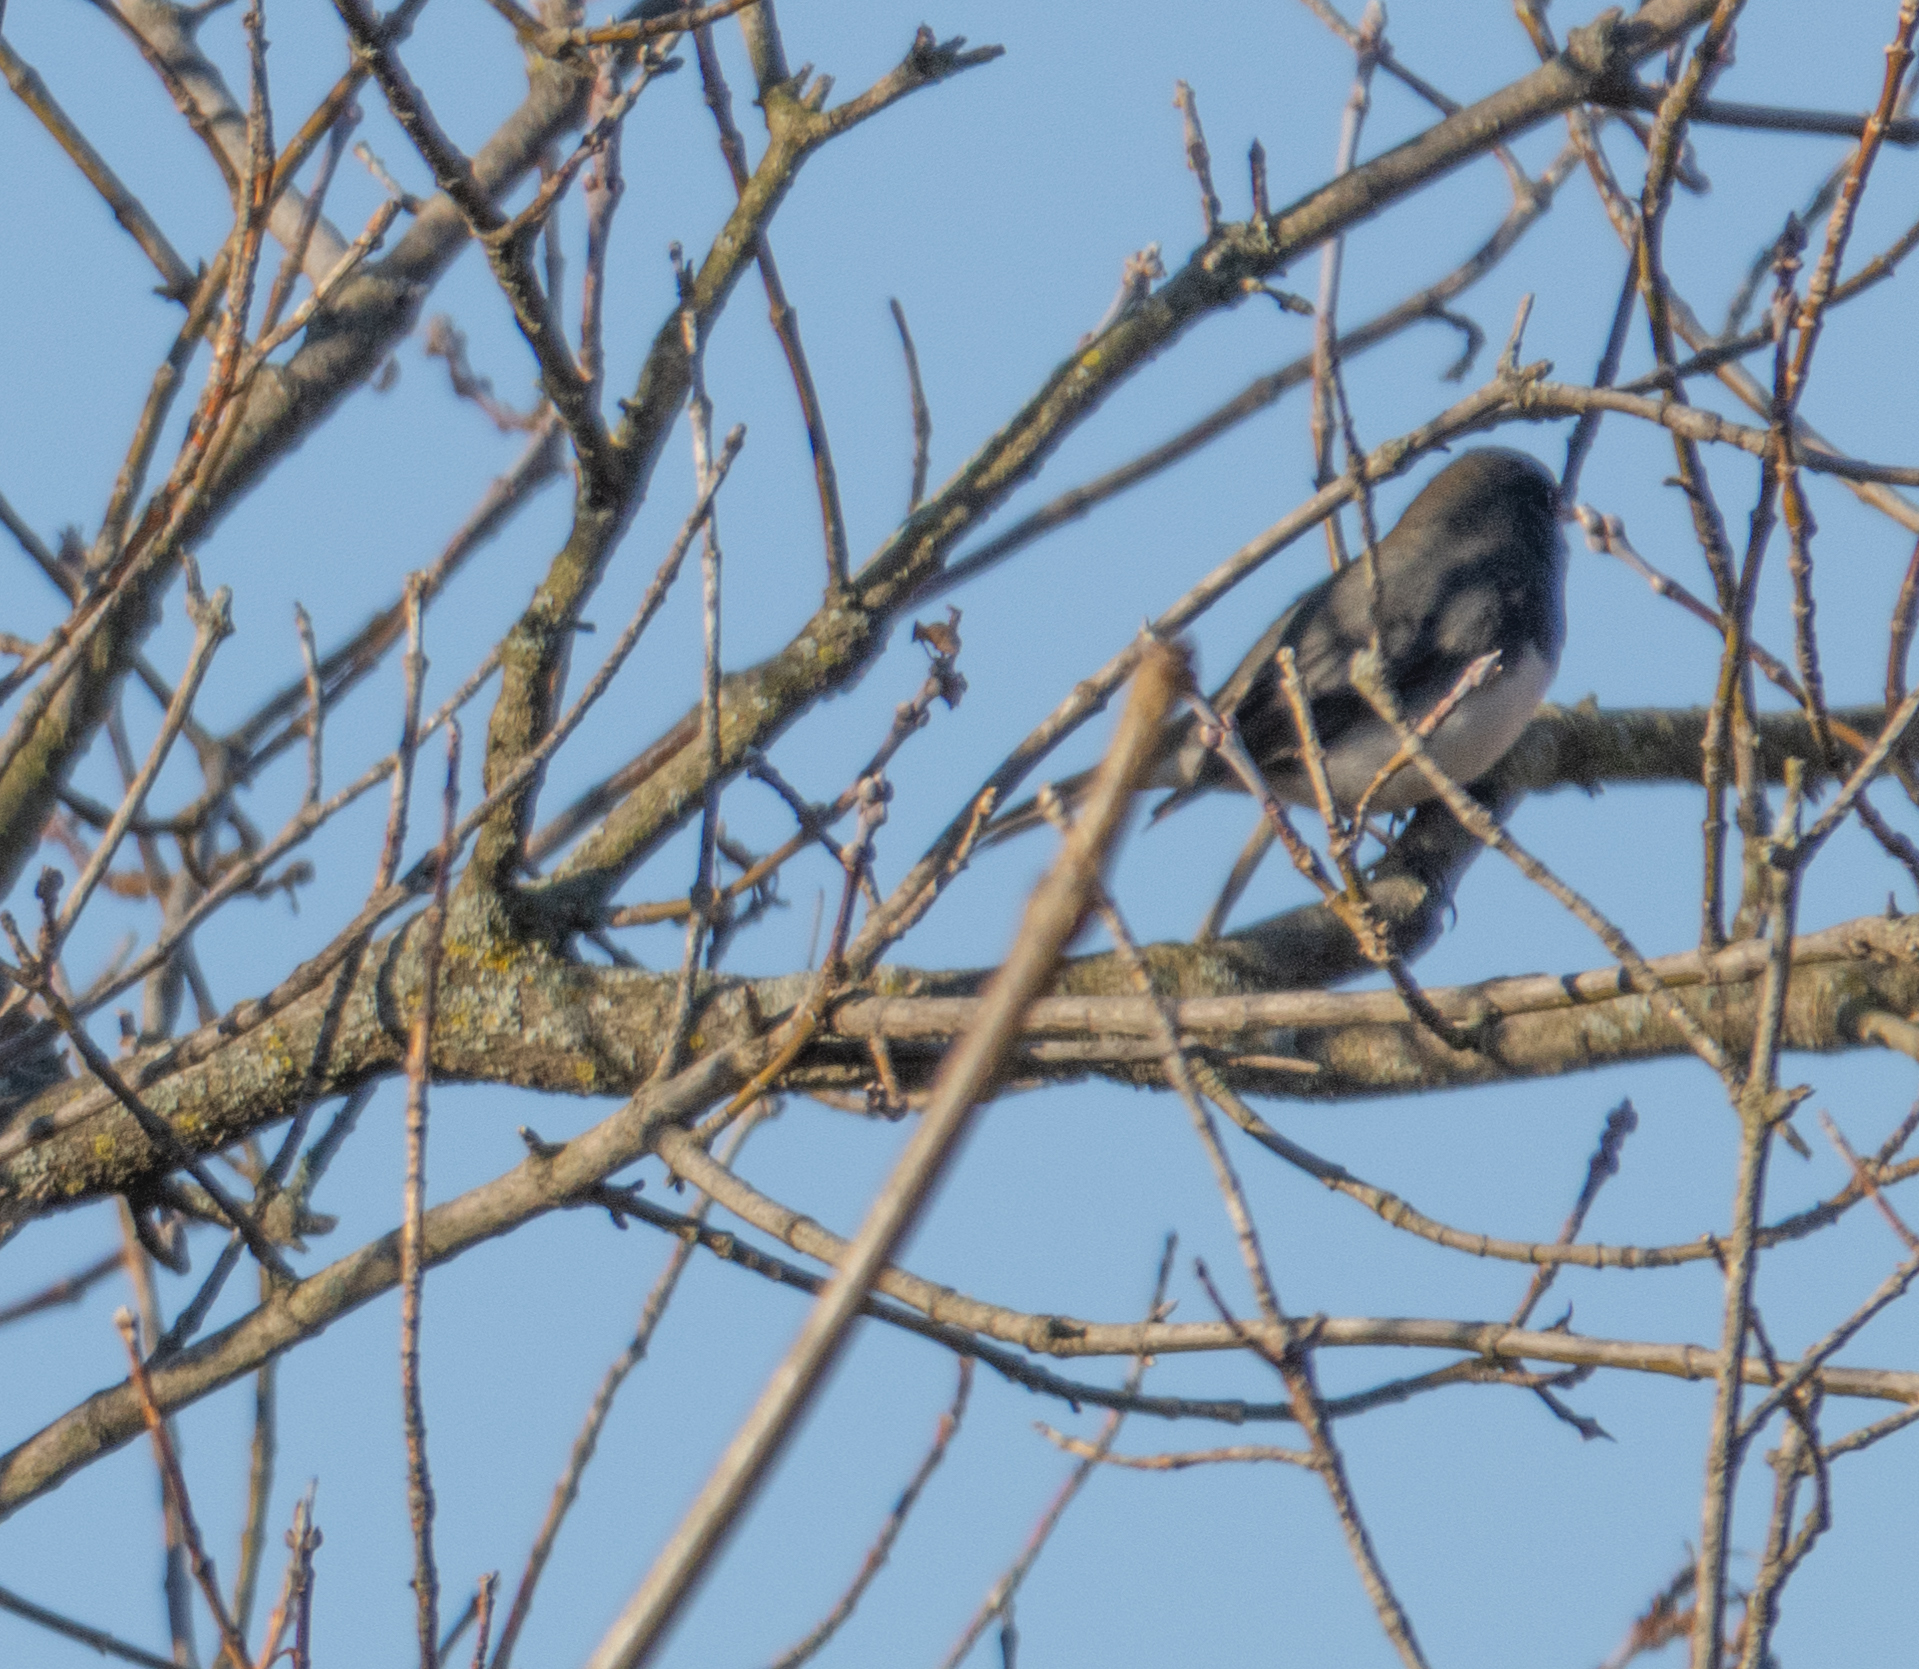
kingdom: Animalia
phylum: Chordata
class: Aves
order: Passeriformes
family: Passerellidae
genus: Junco
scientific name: Junco hyemalis
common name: Dark-eyed junco
